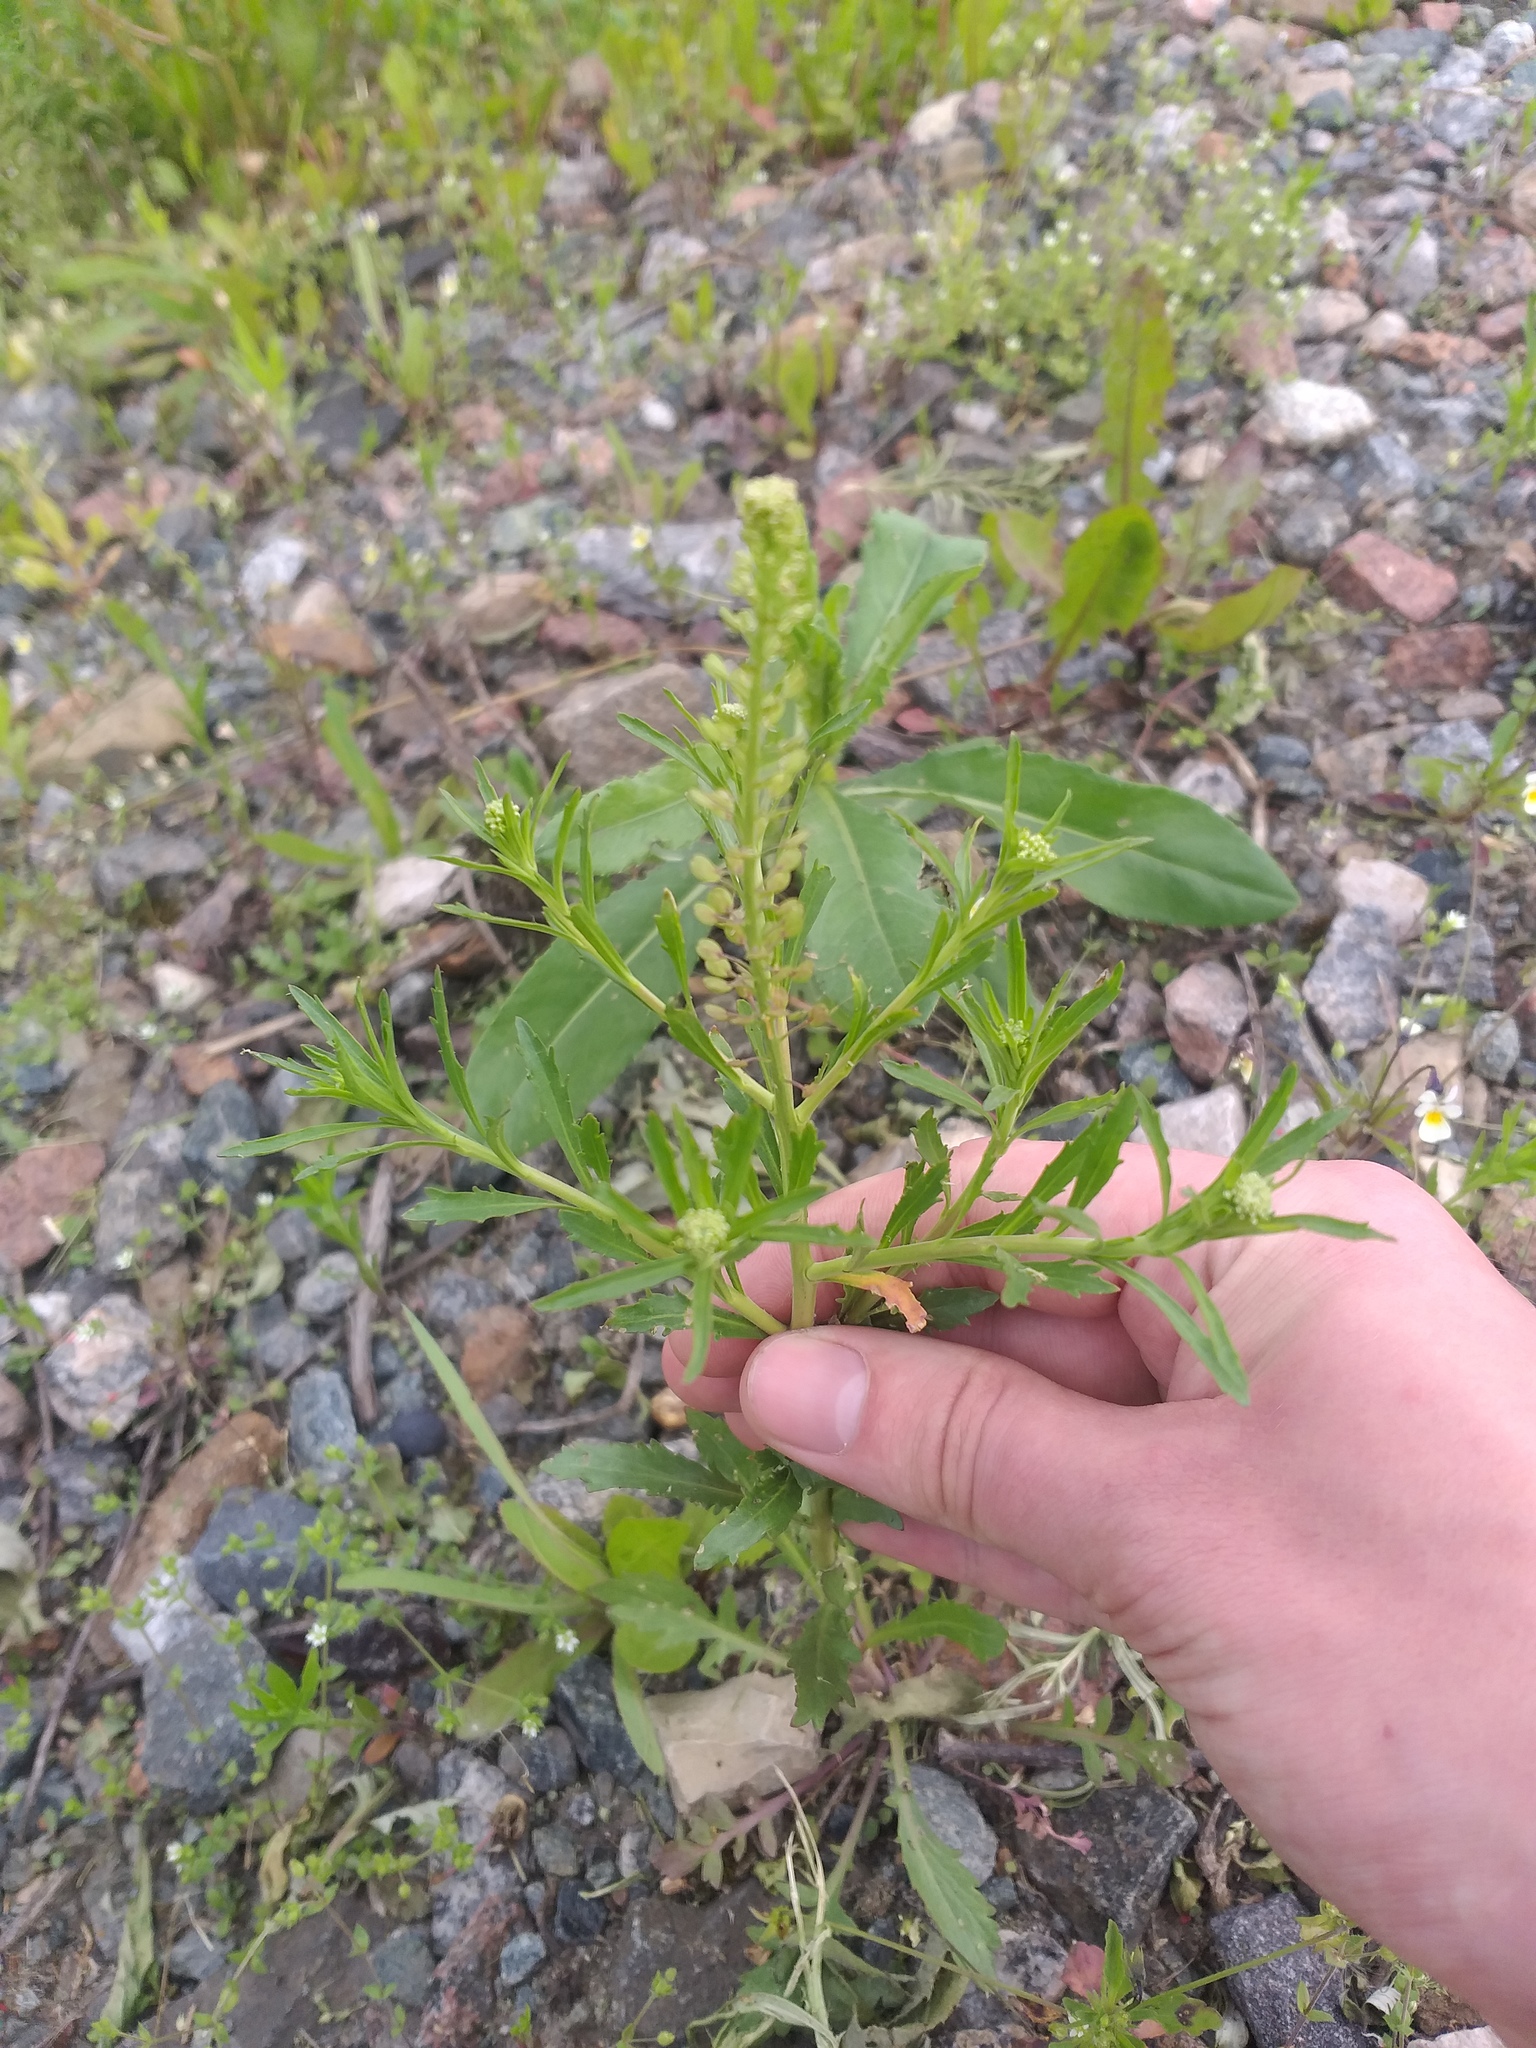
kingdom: Plantae
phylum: Tracheophyta
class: Magnoliopsida
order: Brassicales
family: Brassicaceae
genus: Lepidium
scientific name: Lepidium densiflorum
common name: Miner's pepperwort
